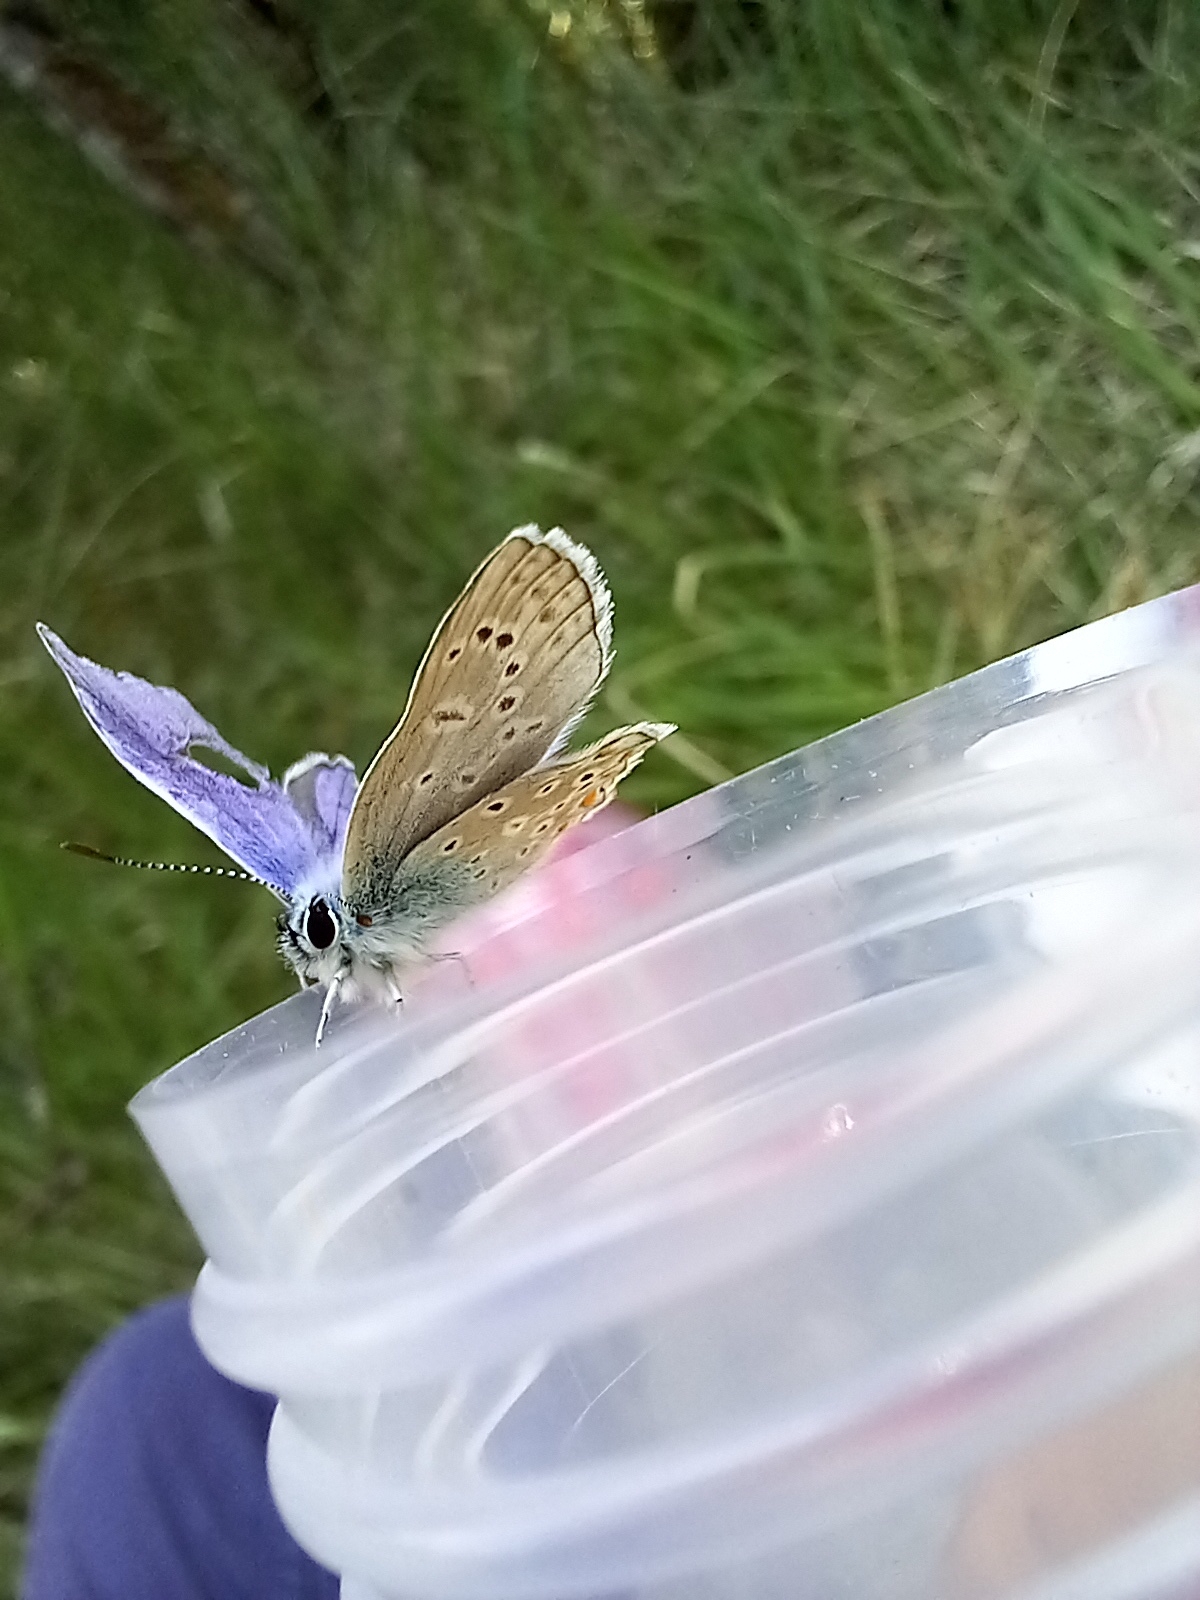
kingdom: Animalia
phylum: Arthropoda
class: Insecta
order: Lepidoptera
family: Lycaenidae
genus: Polyommatus
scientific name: Polyommatus icarus
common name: Common blue
